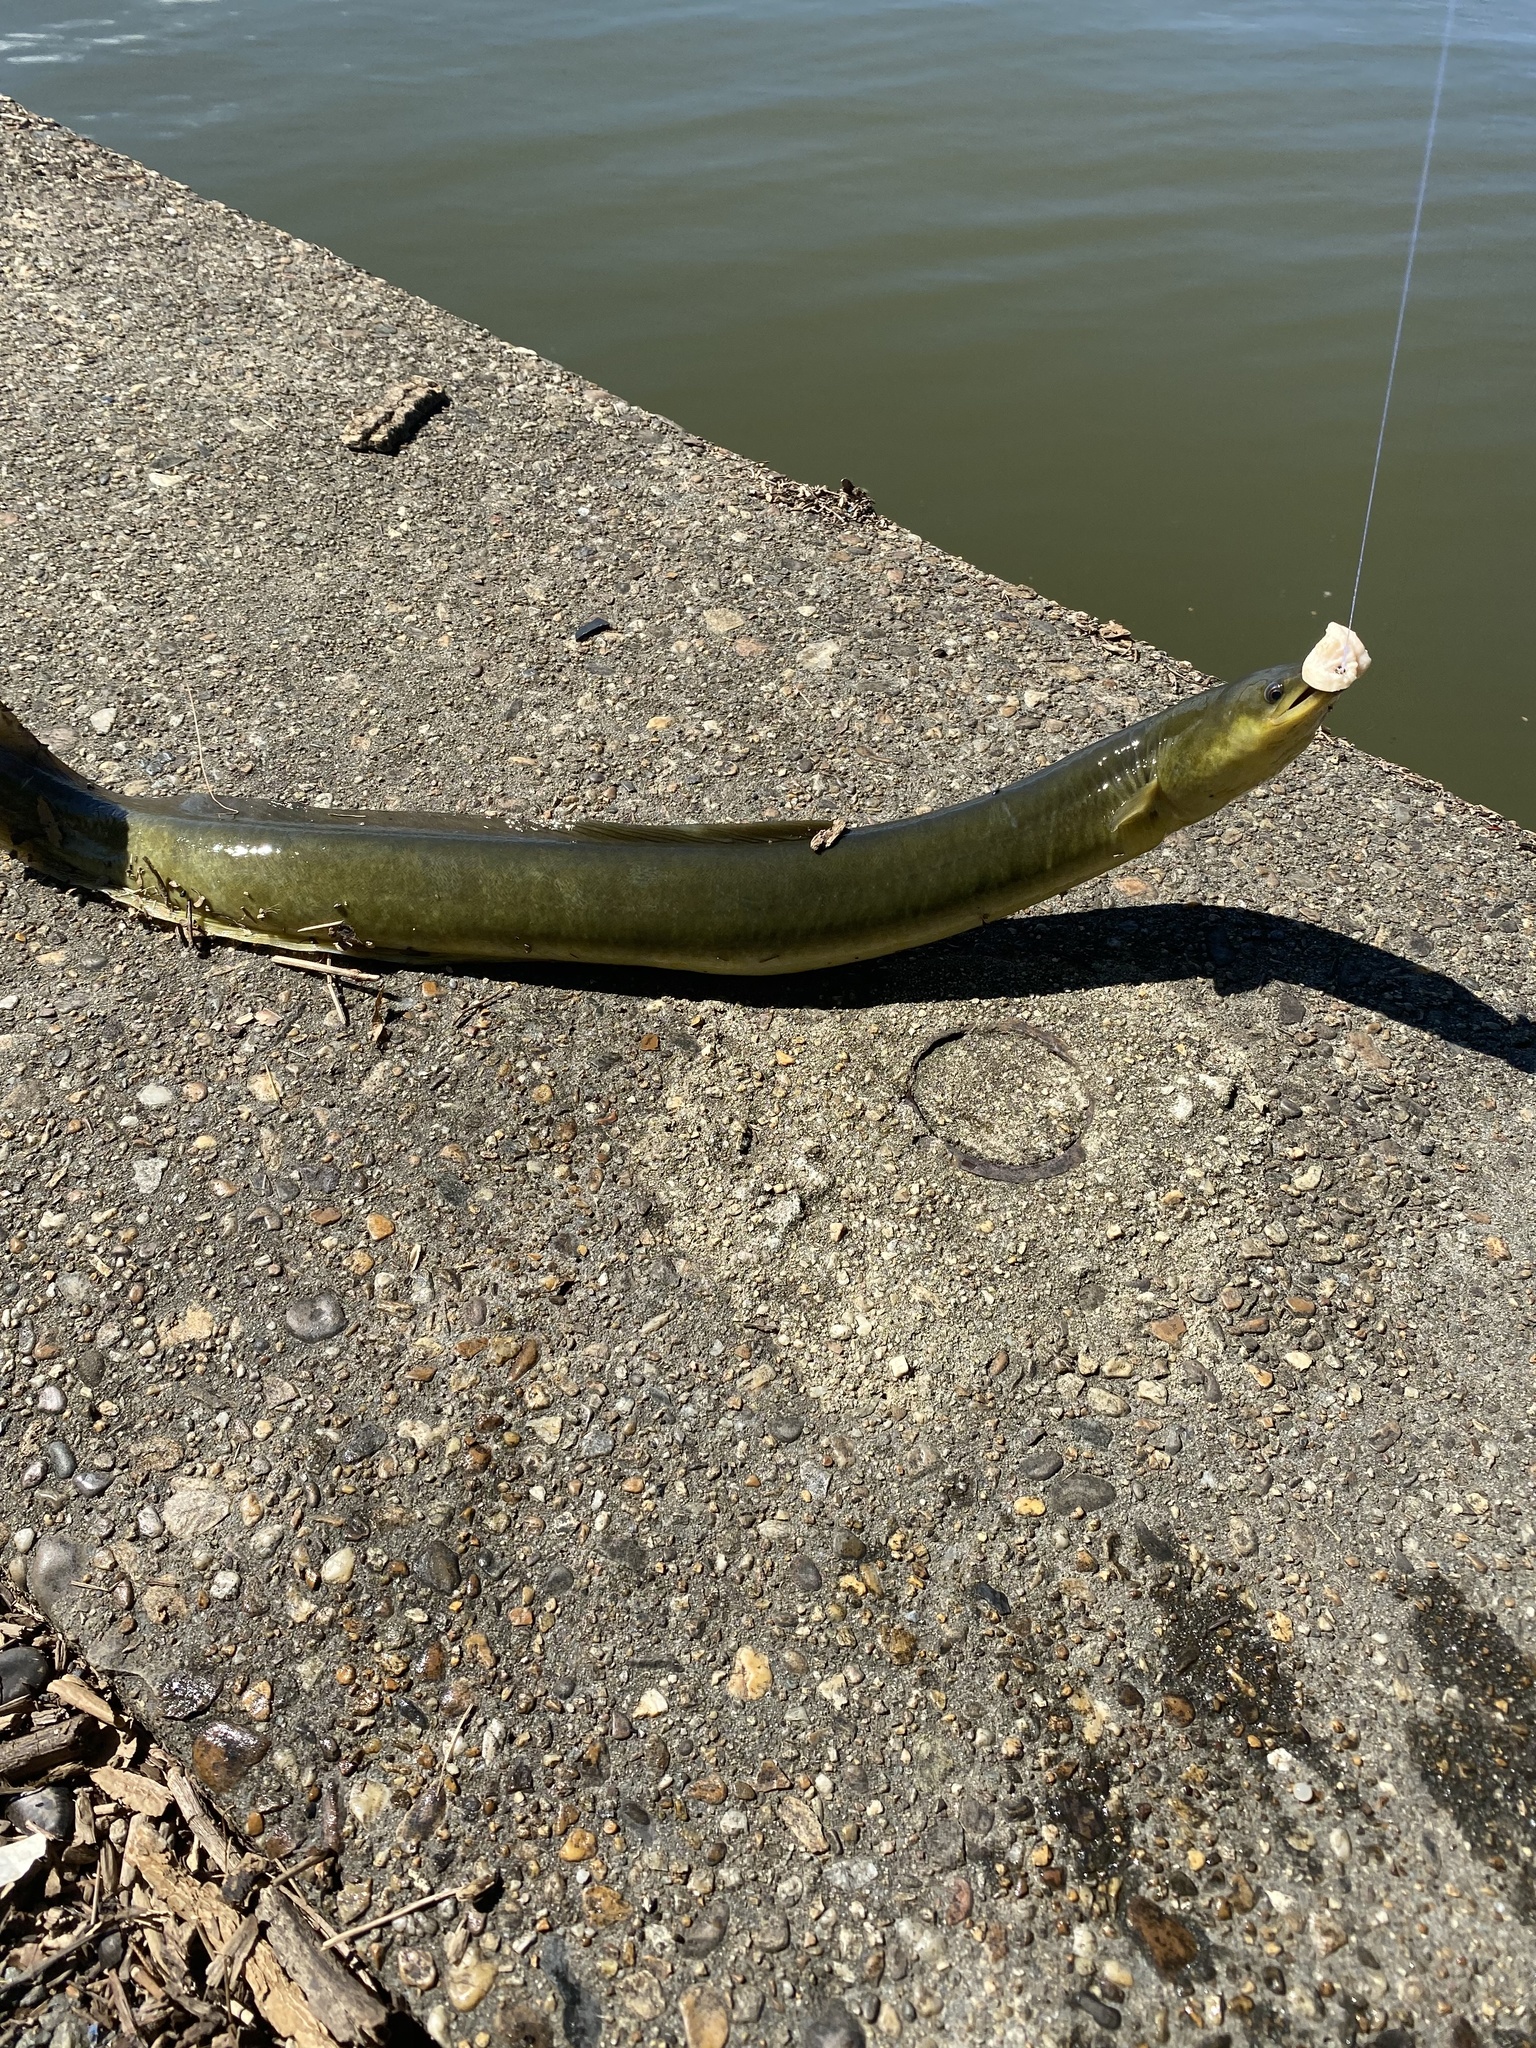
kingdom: Animalia
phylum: Chordata
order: Anguilliformes
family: Anguillidae
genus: Anguilla
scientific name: Anguilla rostrata
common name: American eel
